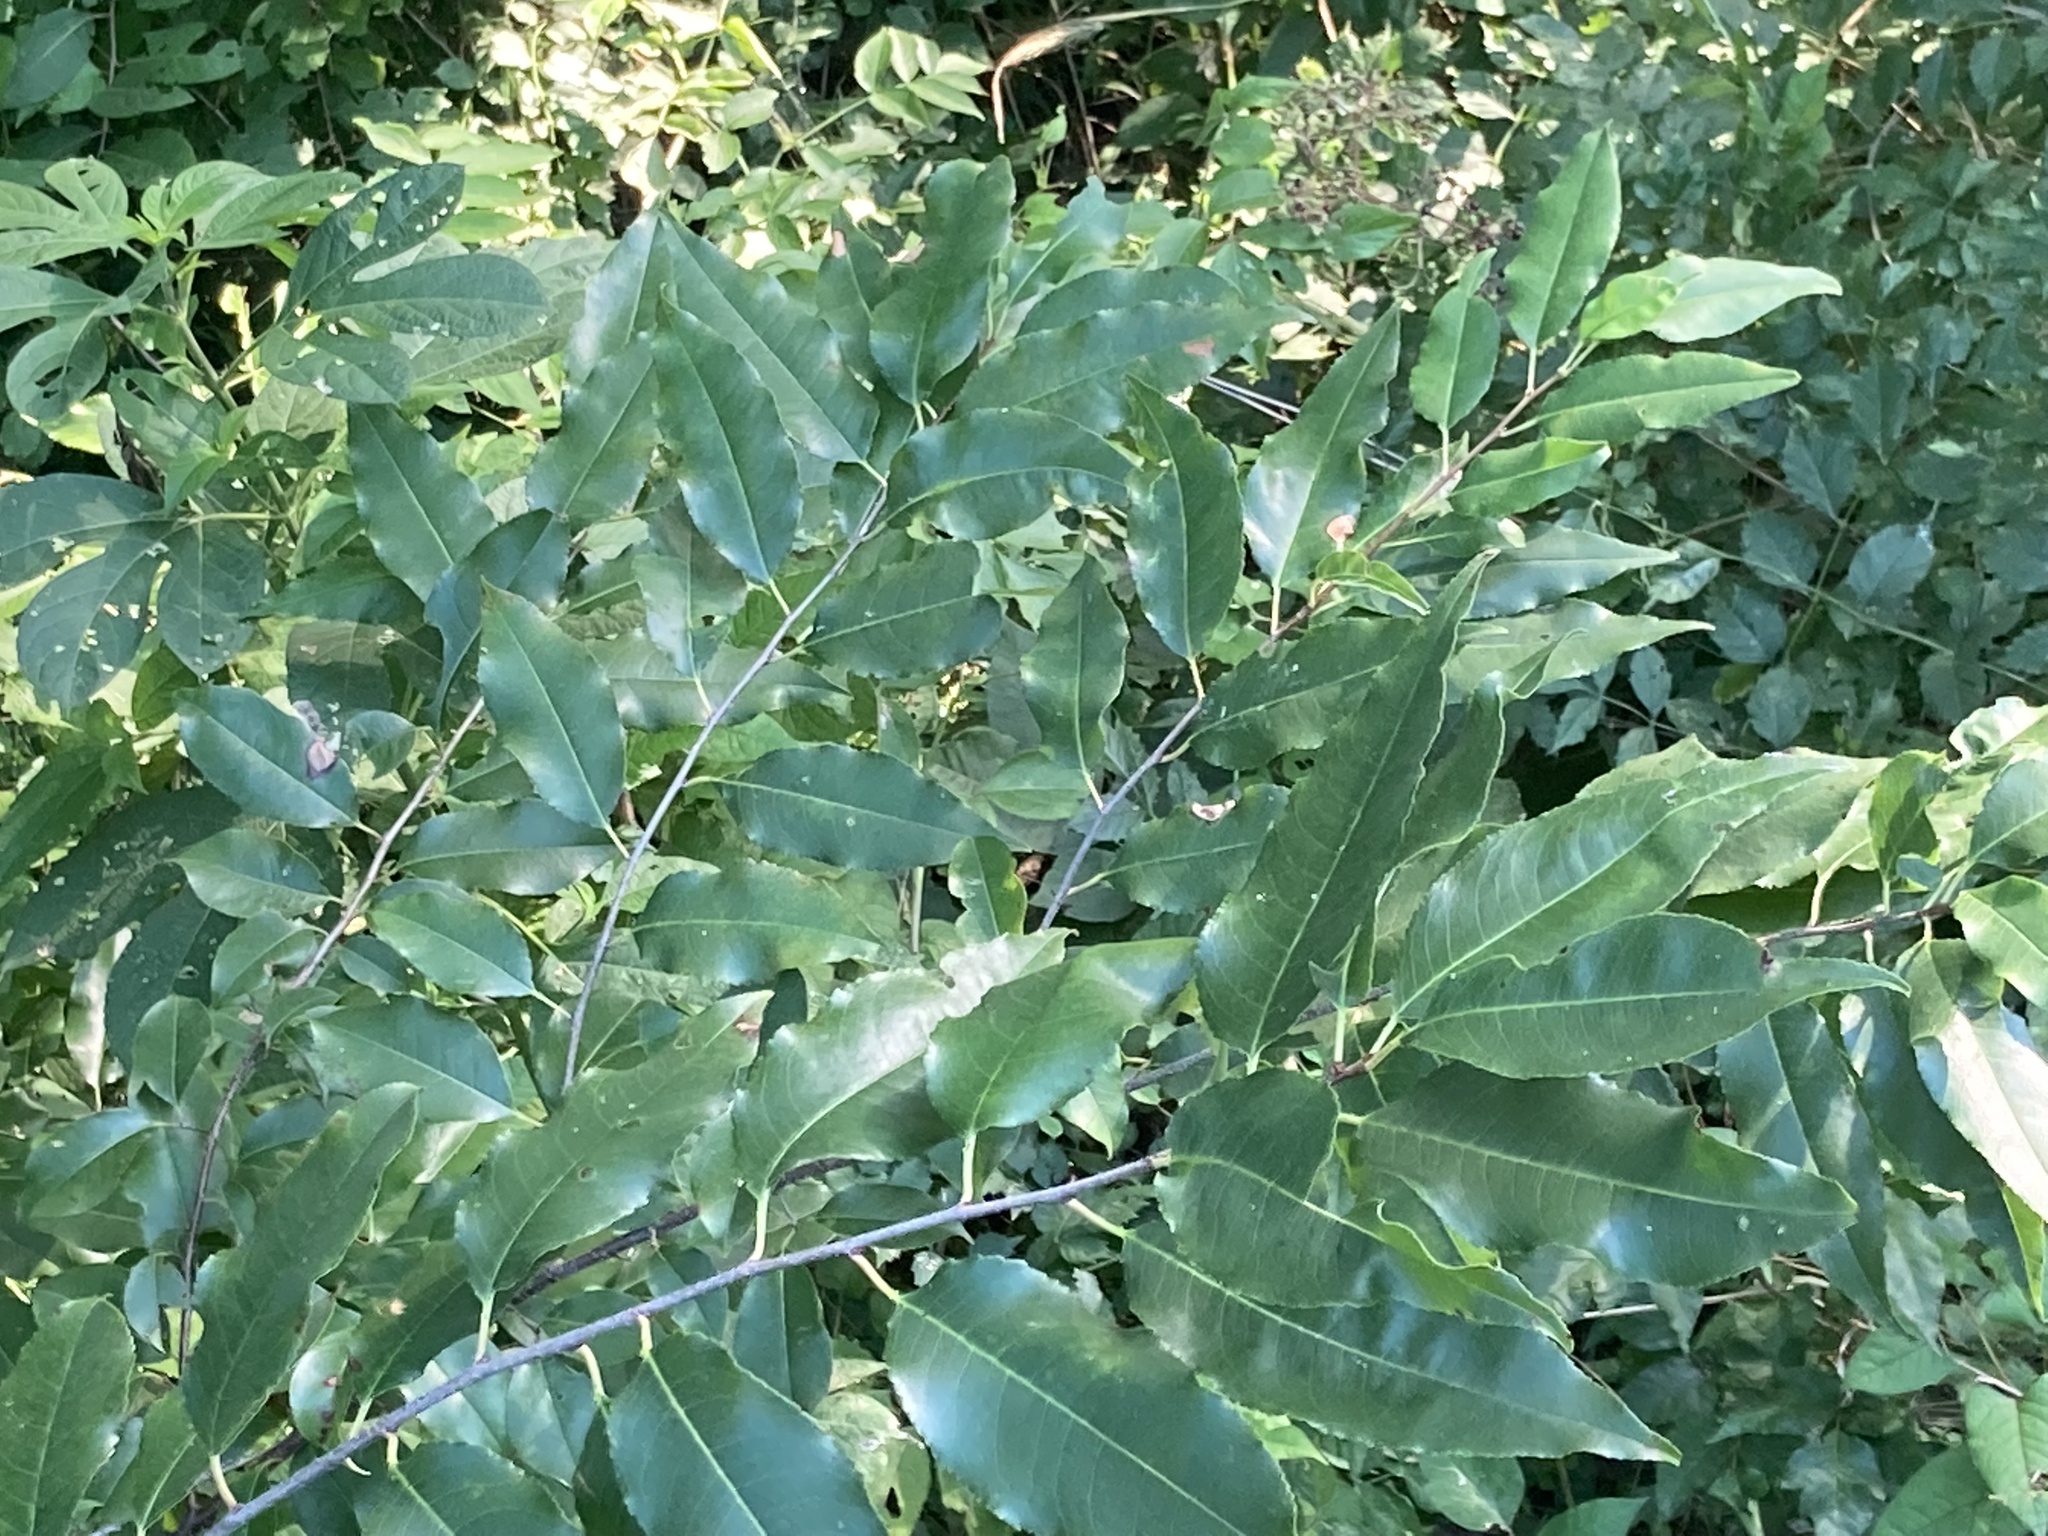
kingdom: Plantae
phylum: Tracheophyta
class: Magnoliopsida
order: Rosales
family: Rosaceae
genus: Prunus
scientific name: Prunus serotina
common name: Black cherry
